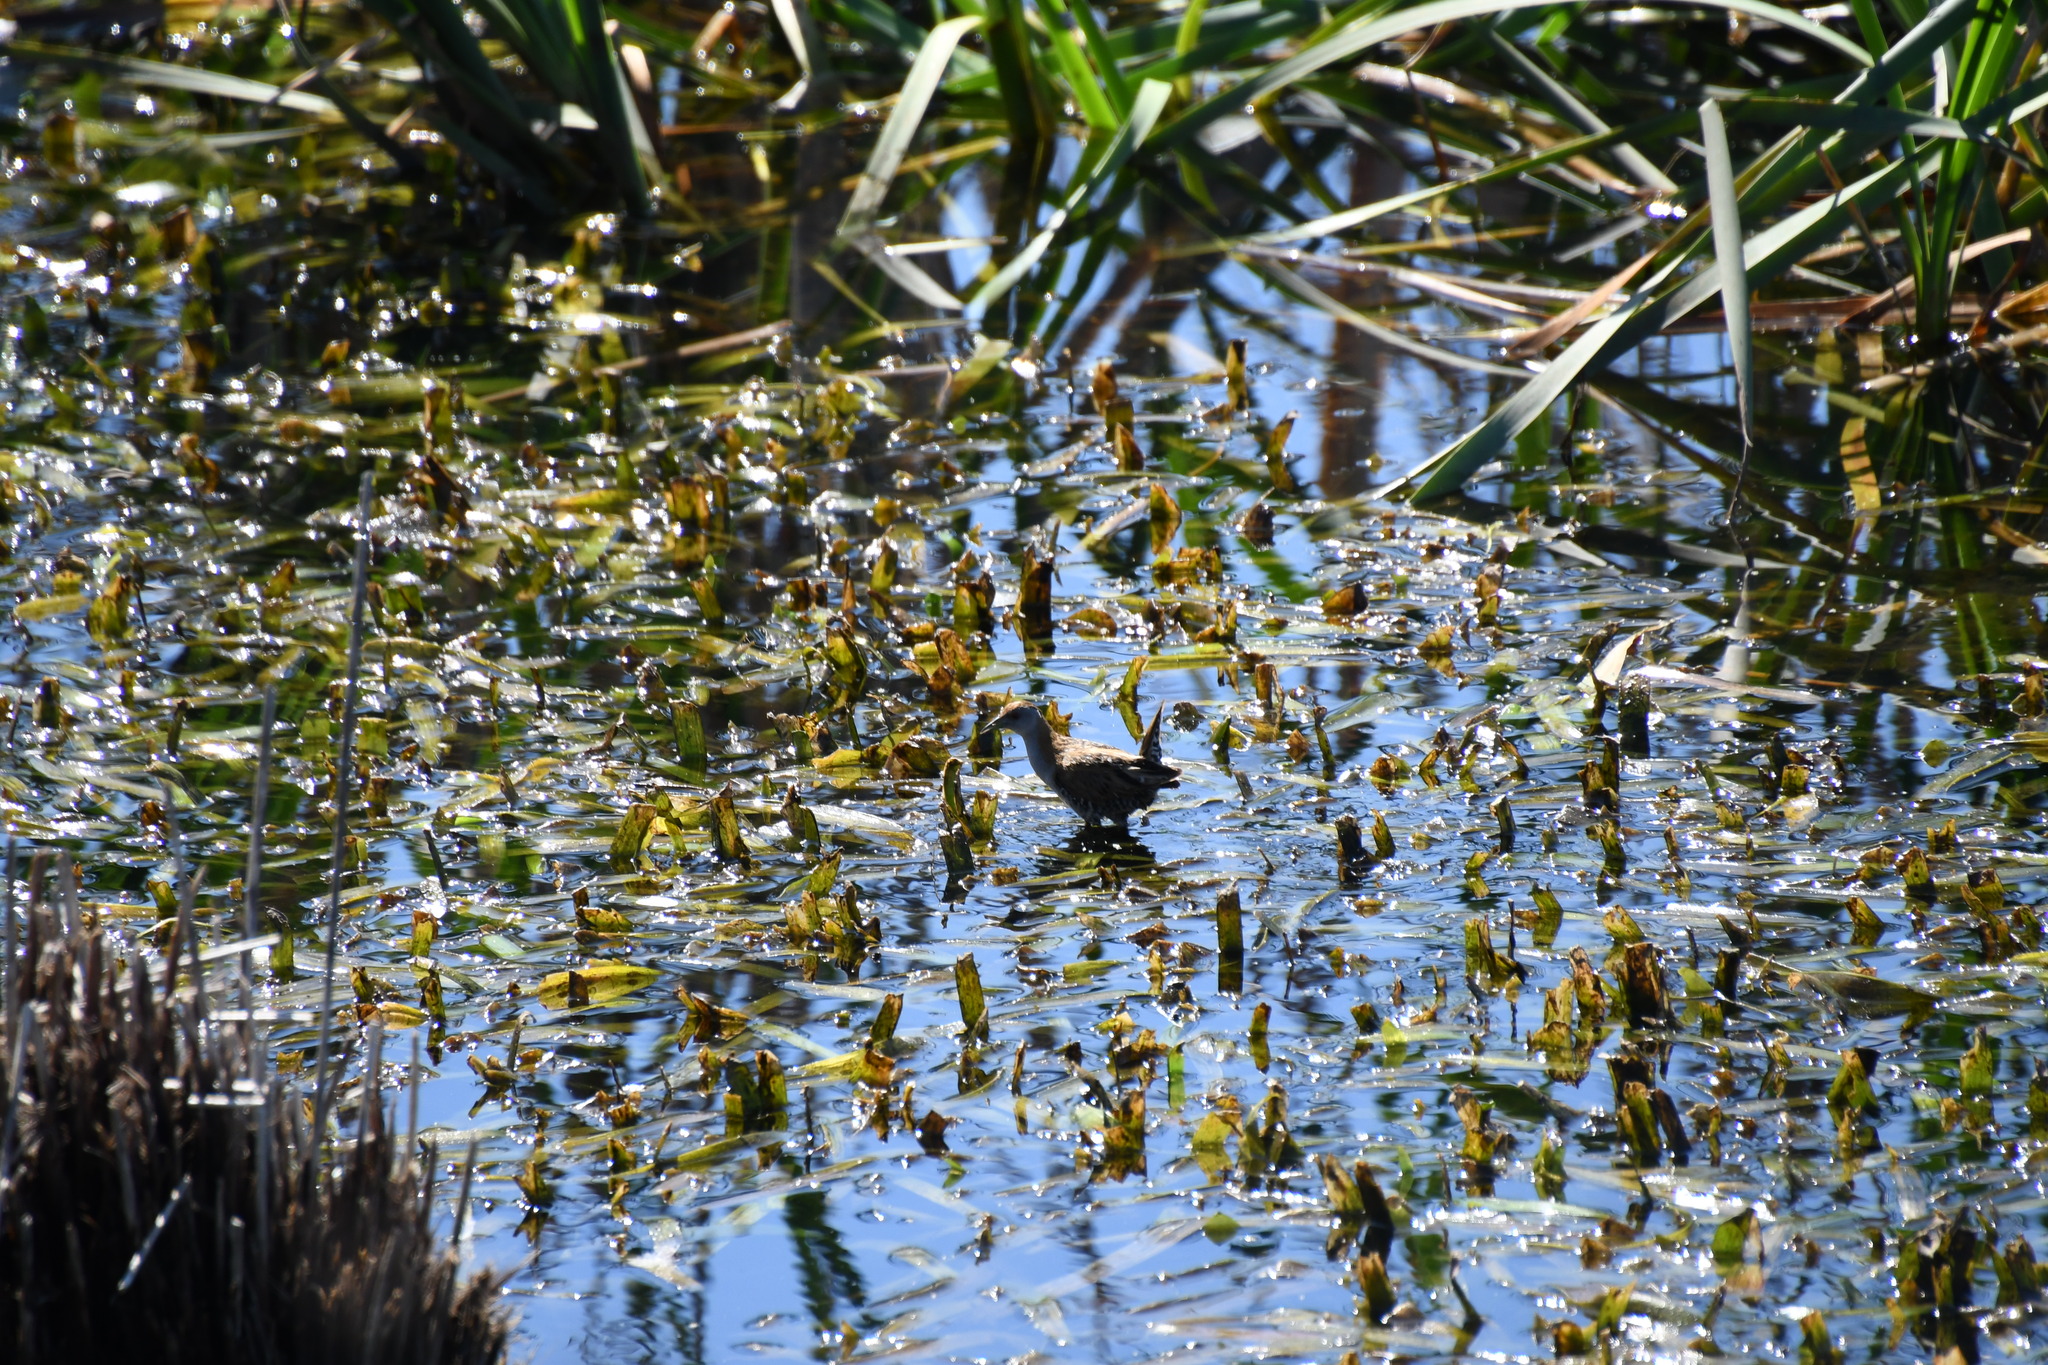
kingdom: Animalia
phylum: Chordata
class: Aves
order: Gruiformes
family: Rallidae
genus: Porzana
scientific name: Porzana pusilla
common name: Baillon's crake
